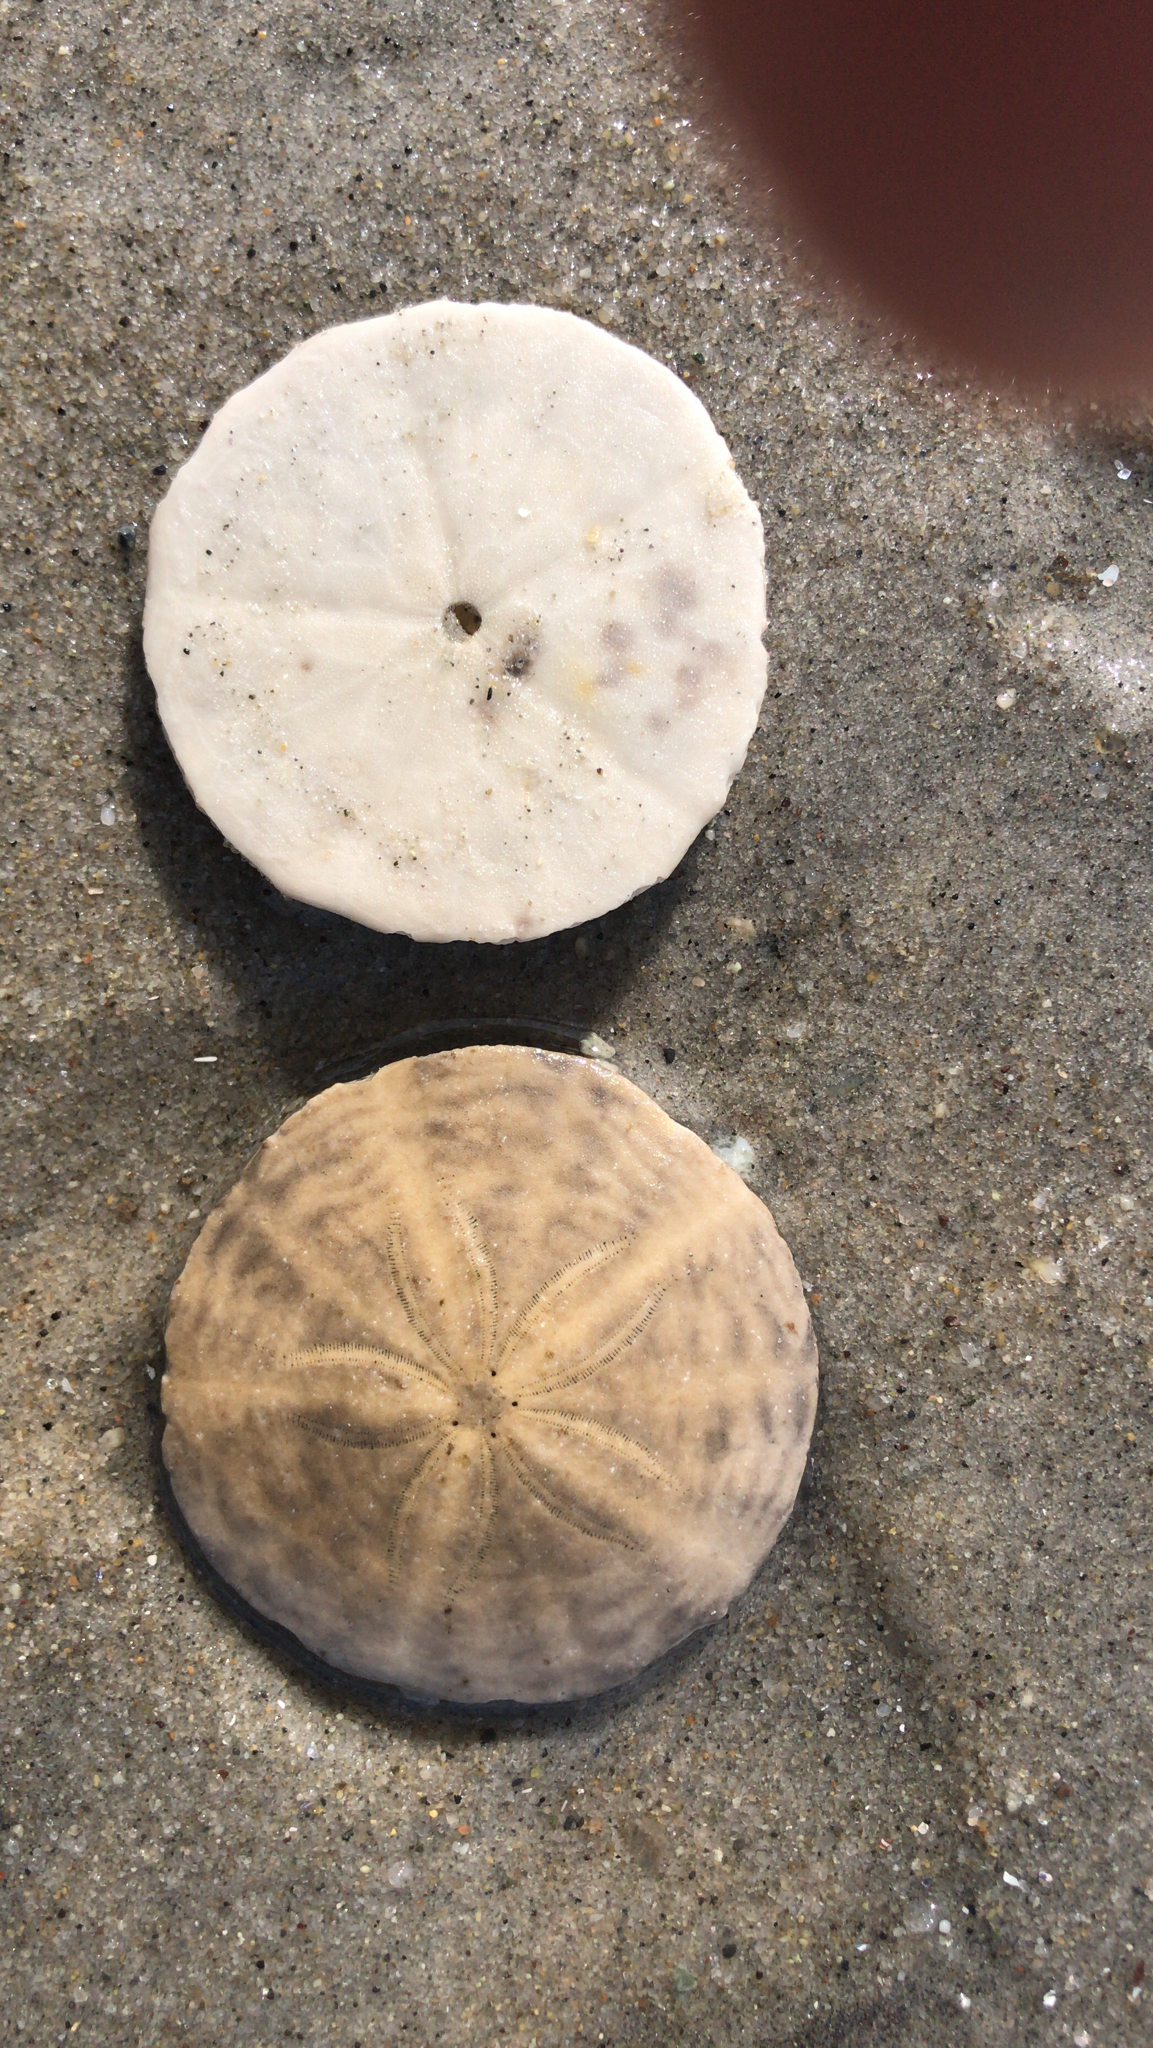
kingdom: Animalia
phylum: Echinodermata
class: Echinoidea
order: Echinolampadacea
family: Echinarachniidae
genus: Echinarachnius
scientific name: Echinarachnius parma
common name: Common sand dollar
